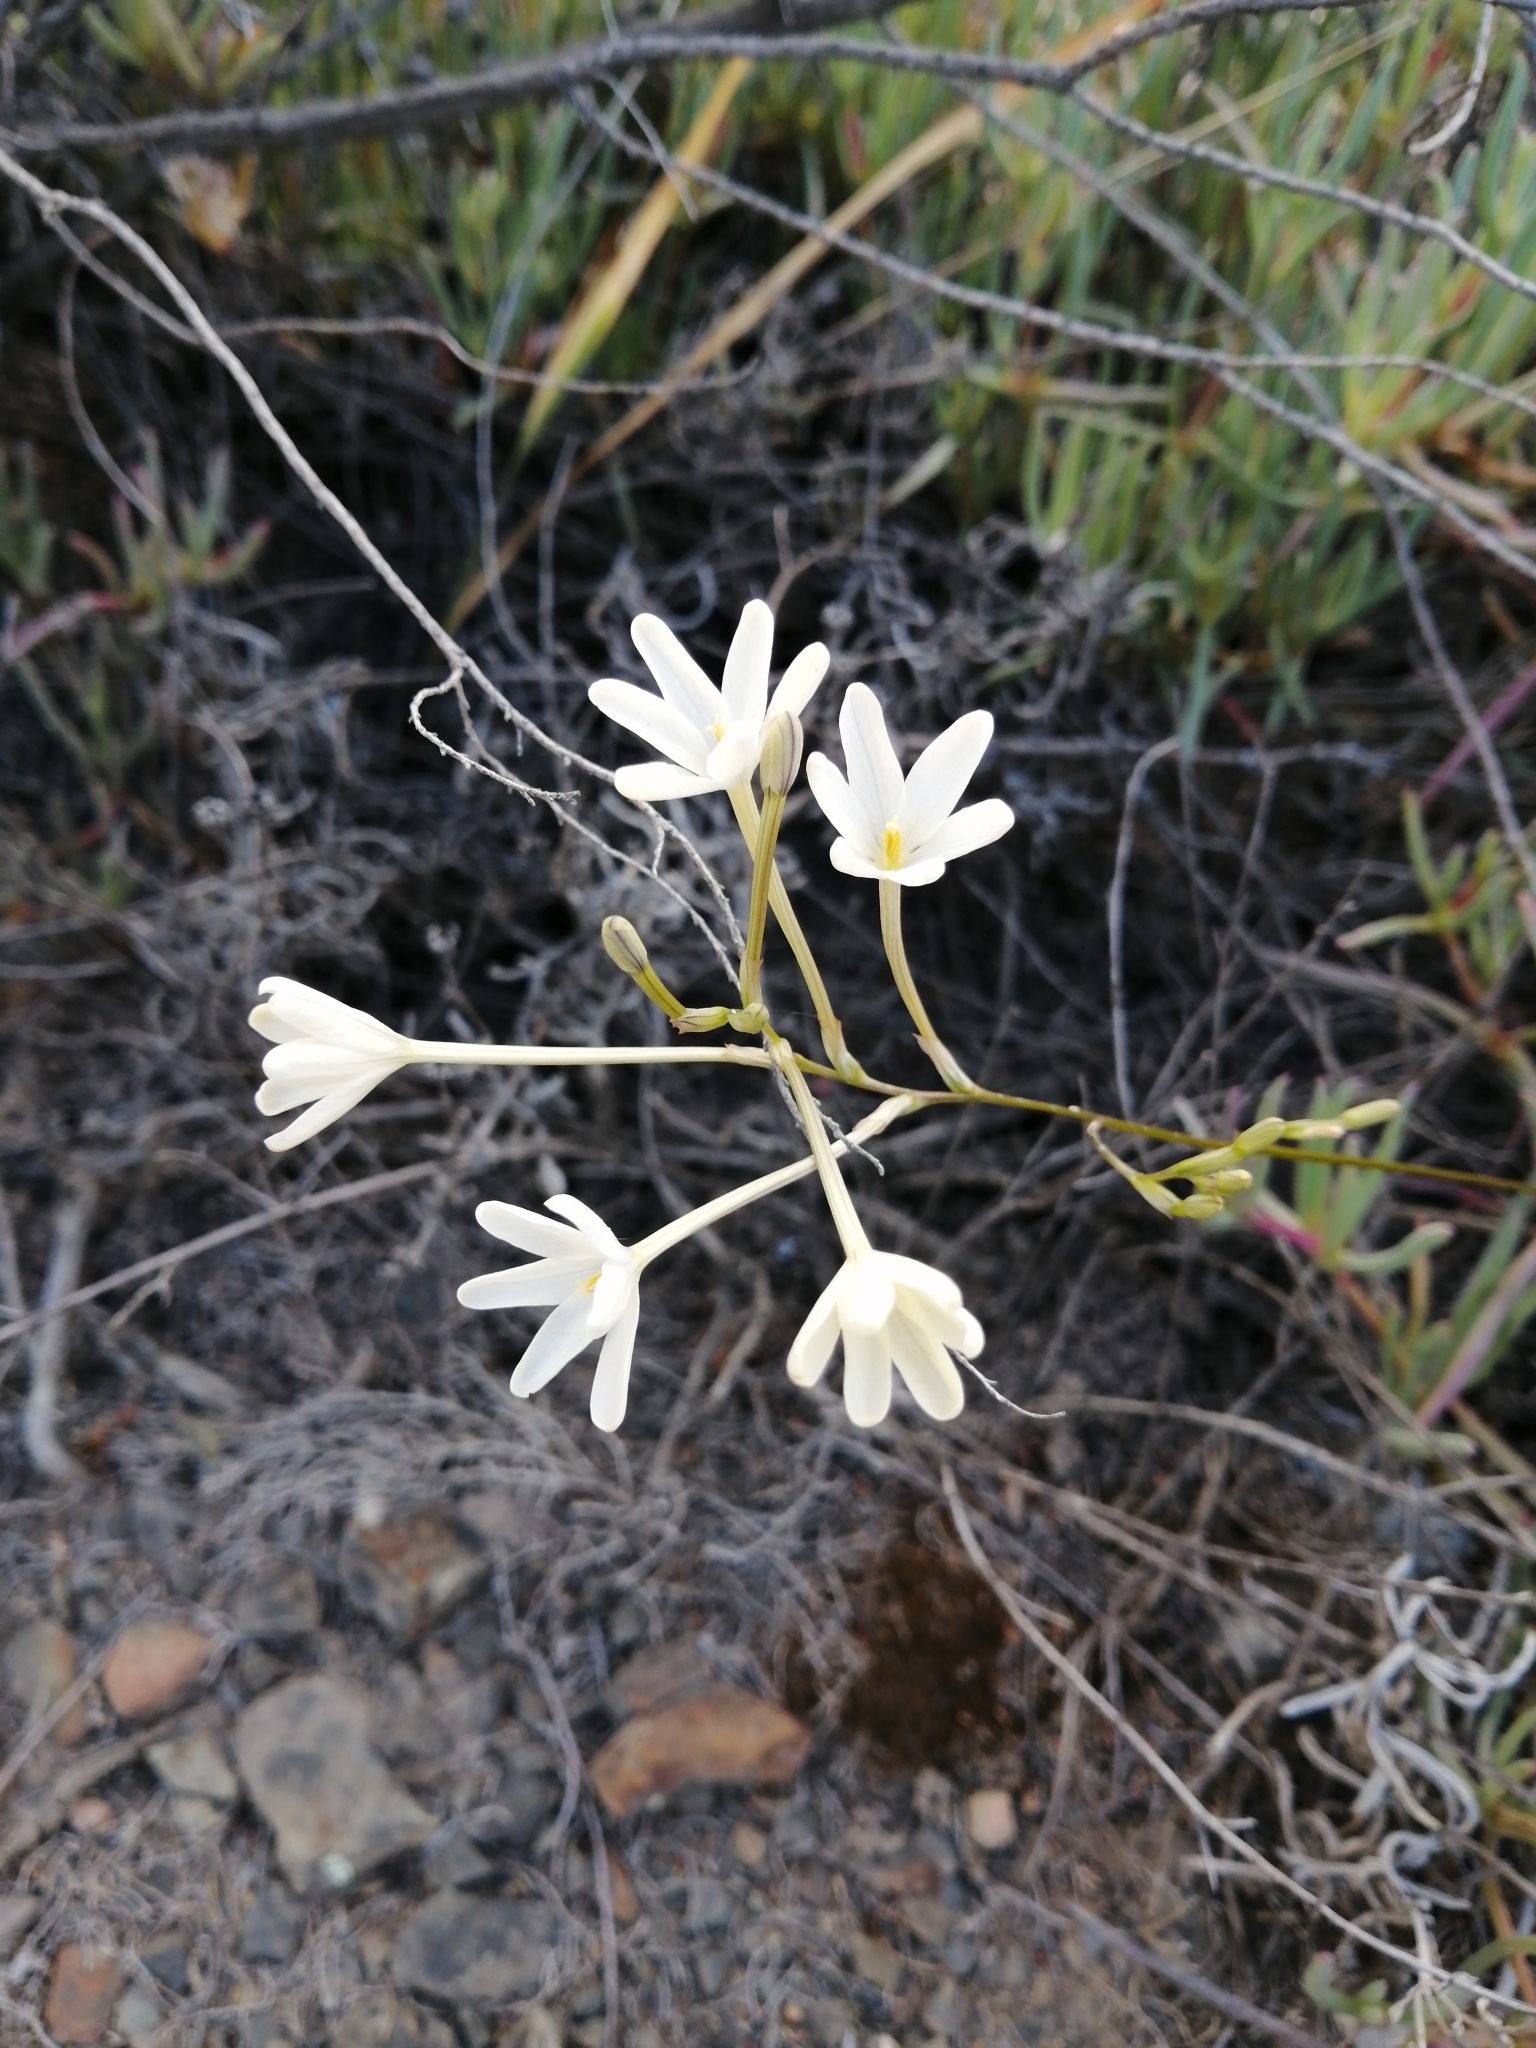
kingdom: Plantae
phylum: Tracheophyta
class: Liliopsida
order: Asparagales
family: Iridaceae
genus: Ixia
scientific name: Ixia paucifolia
